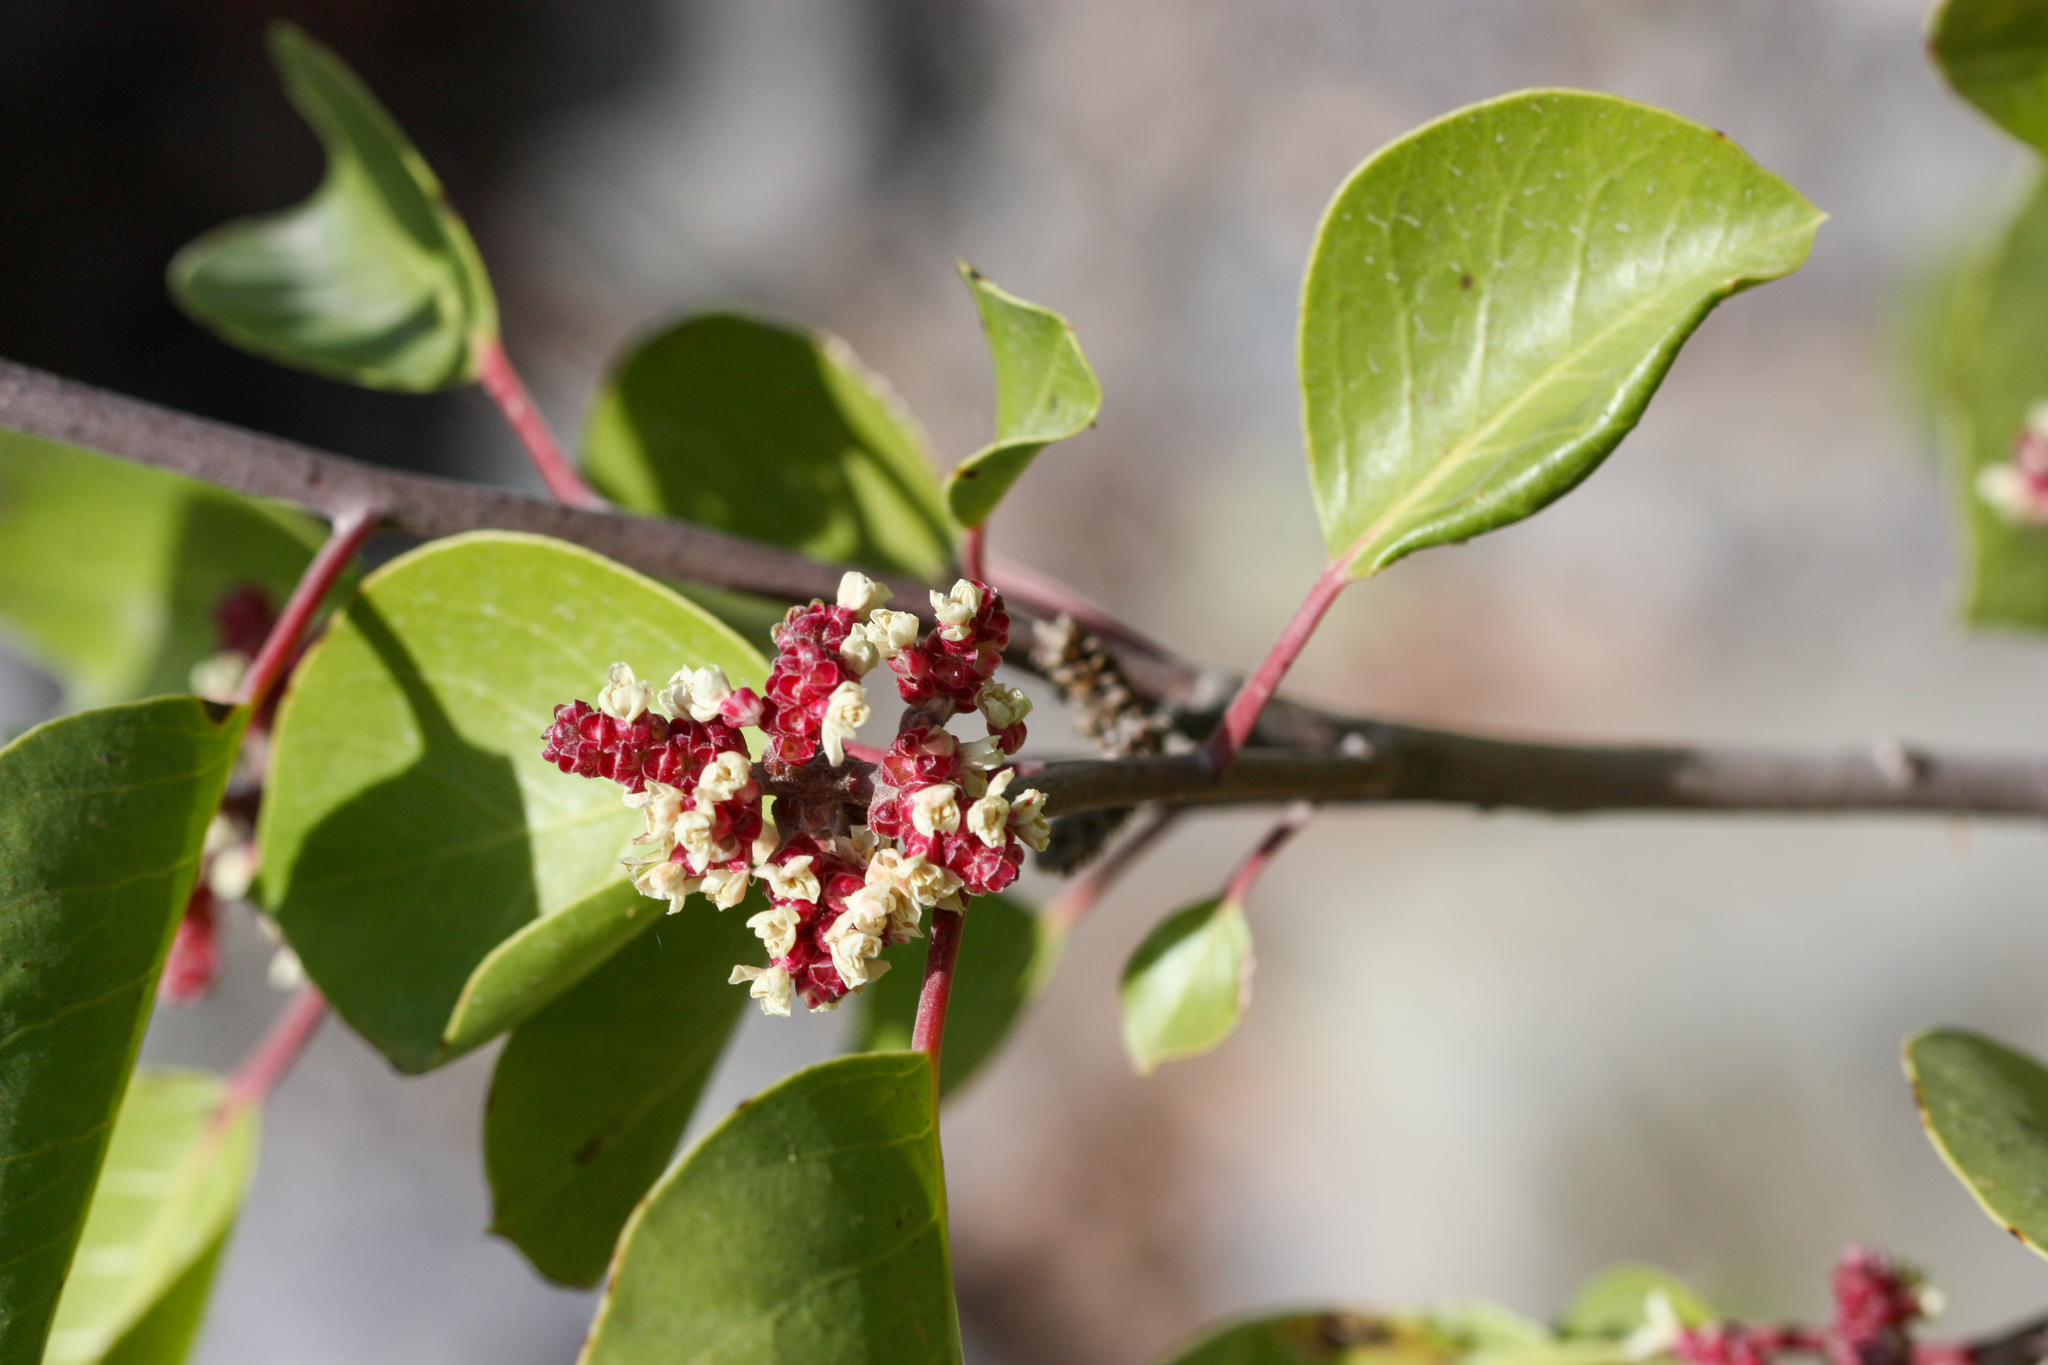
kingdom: Plantae
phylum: Tracheophyta
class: Magnoliopsida
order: Sapindales
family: Anacardiaceae
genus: Rhus
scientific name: Rhus ovata
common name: Sugar sumac
